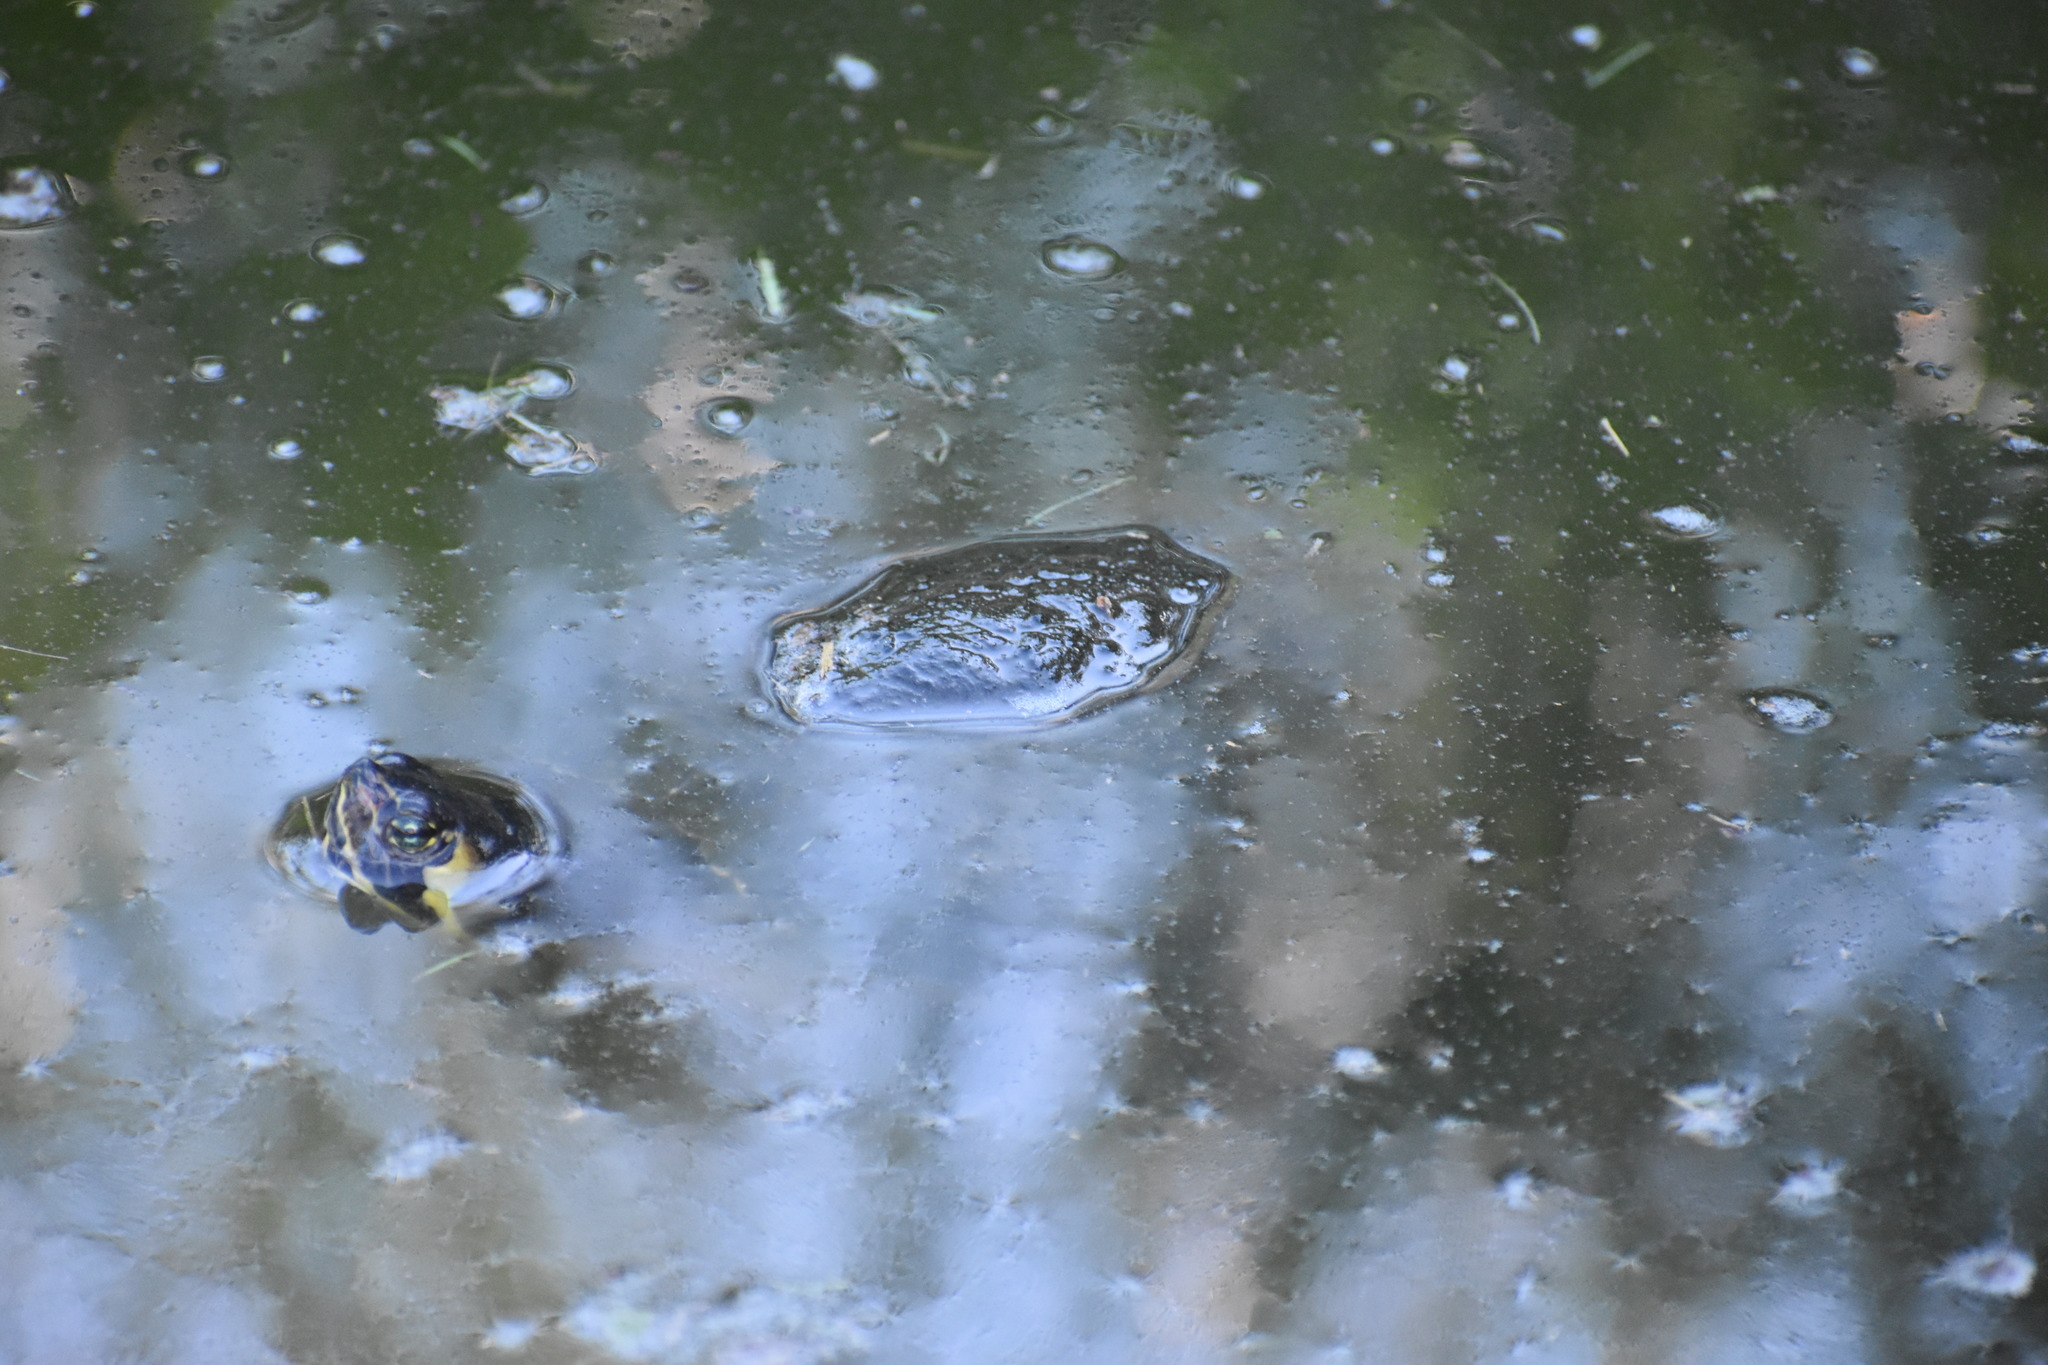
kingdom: Animalia
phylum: Chordata
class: Testudines
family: Emydidae
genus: Trachemys
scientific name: Trachemys scripta
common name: Slider
